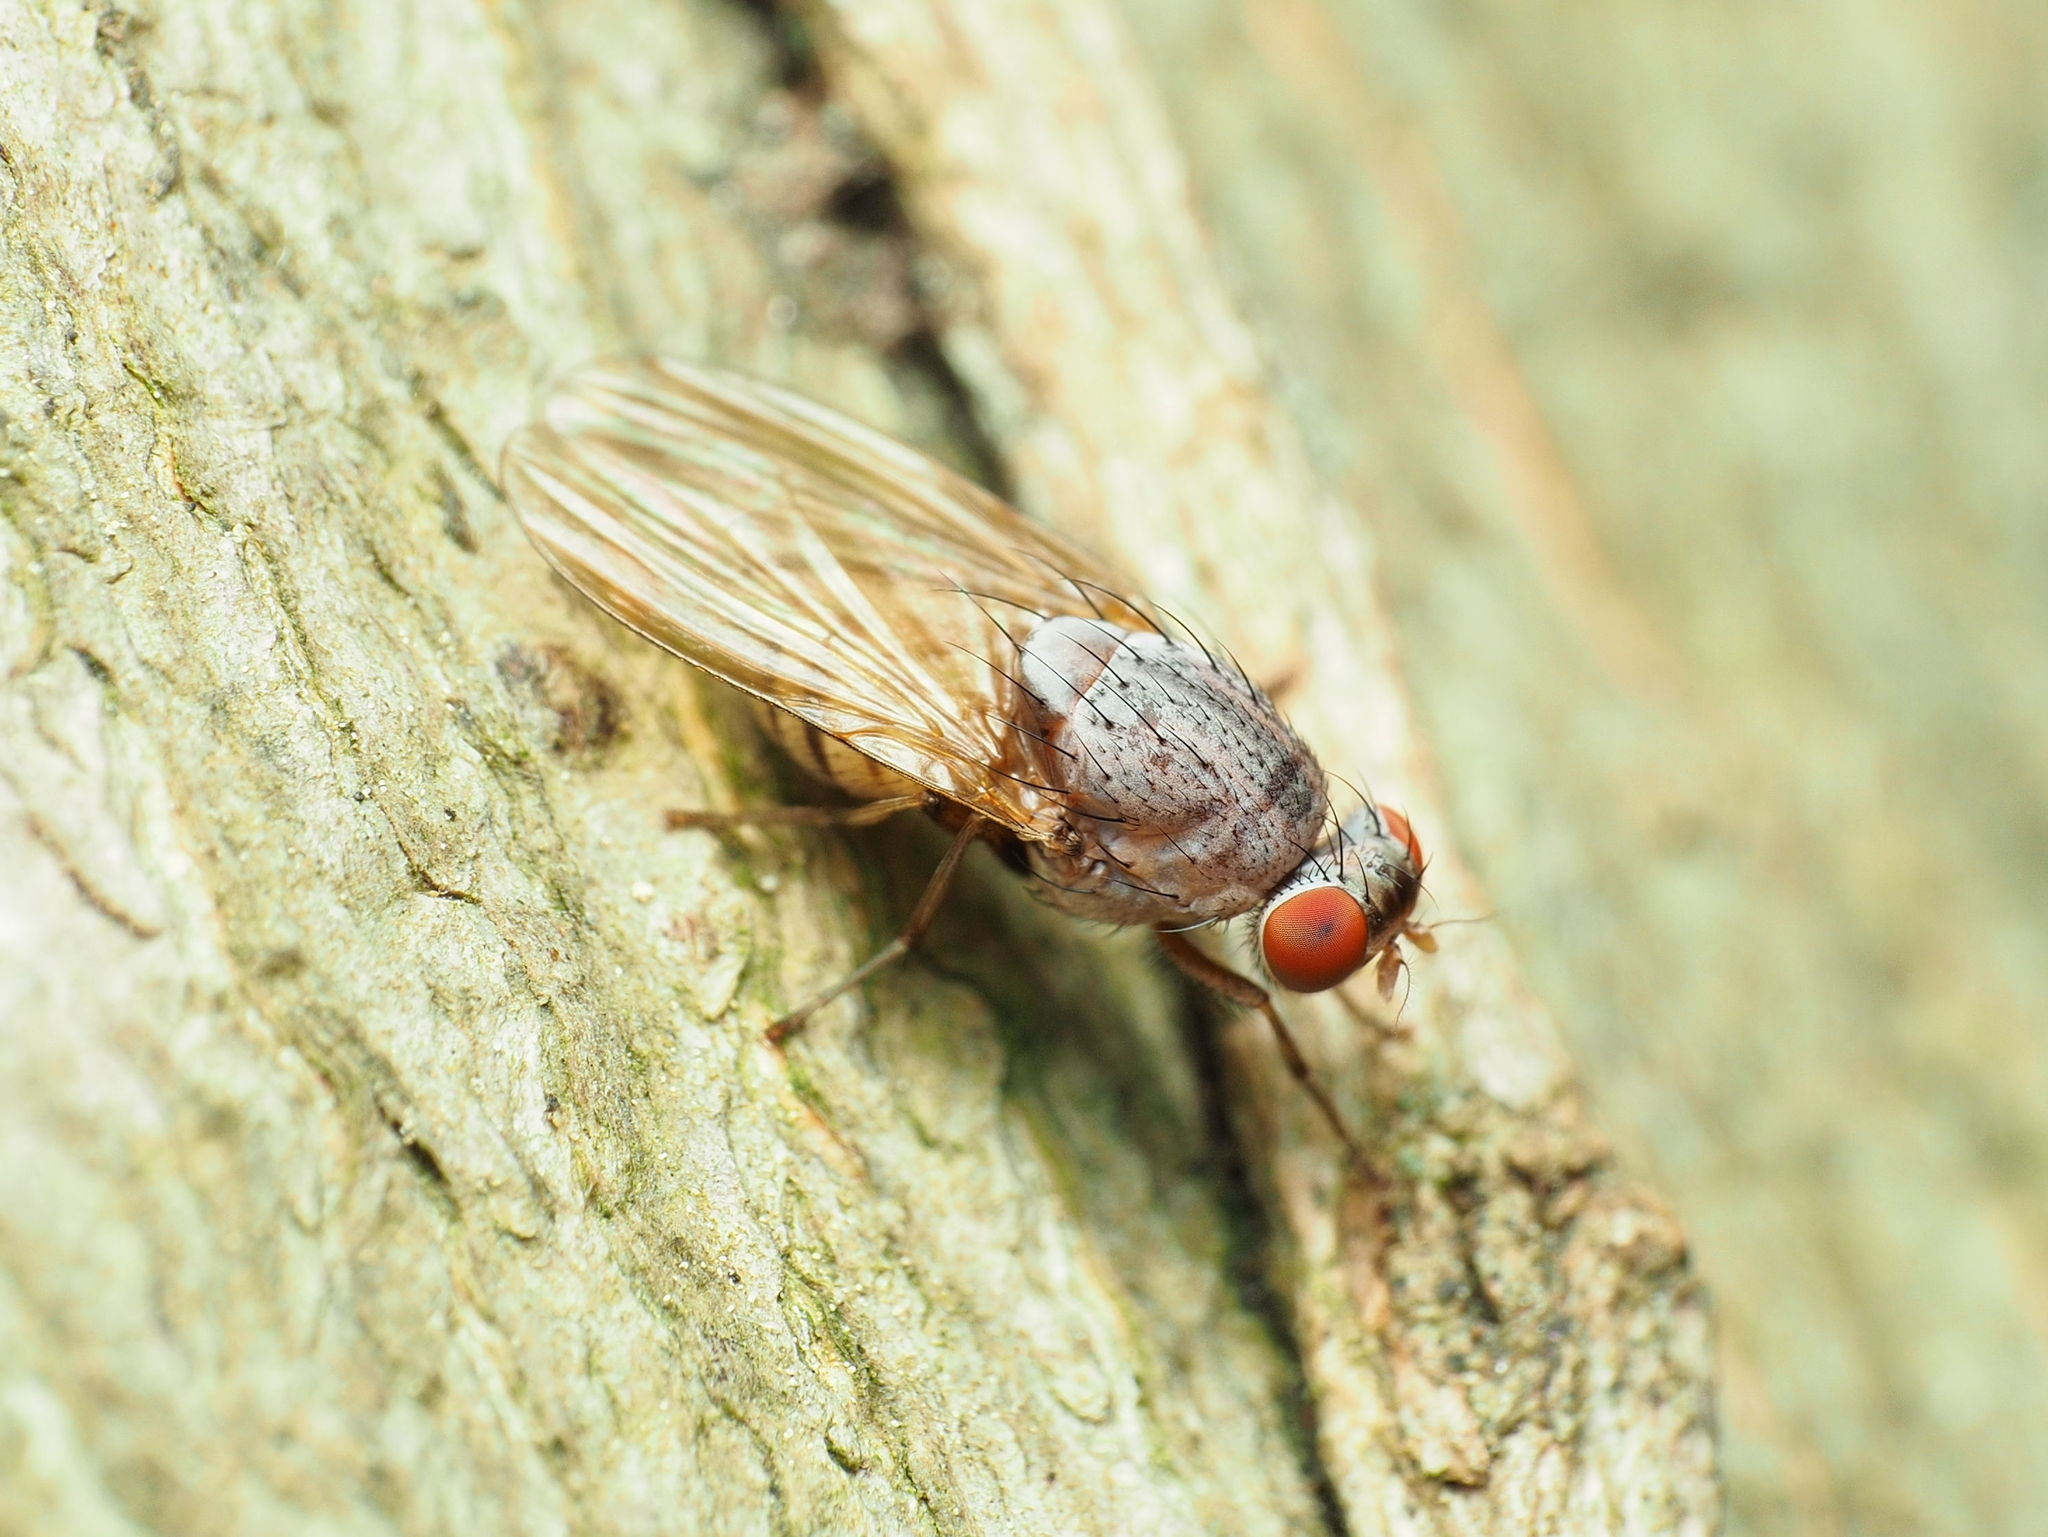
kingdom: Animalia
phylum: Arthropoda
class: Insecta
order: Diptera
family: Lauxaniidae
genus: Minettia
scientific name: Minettia magna
